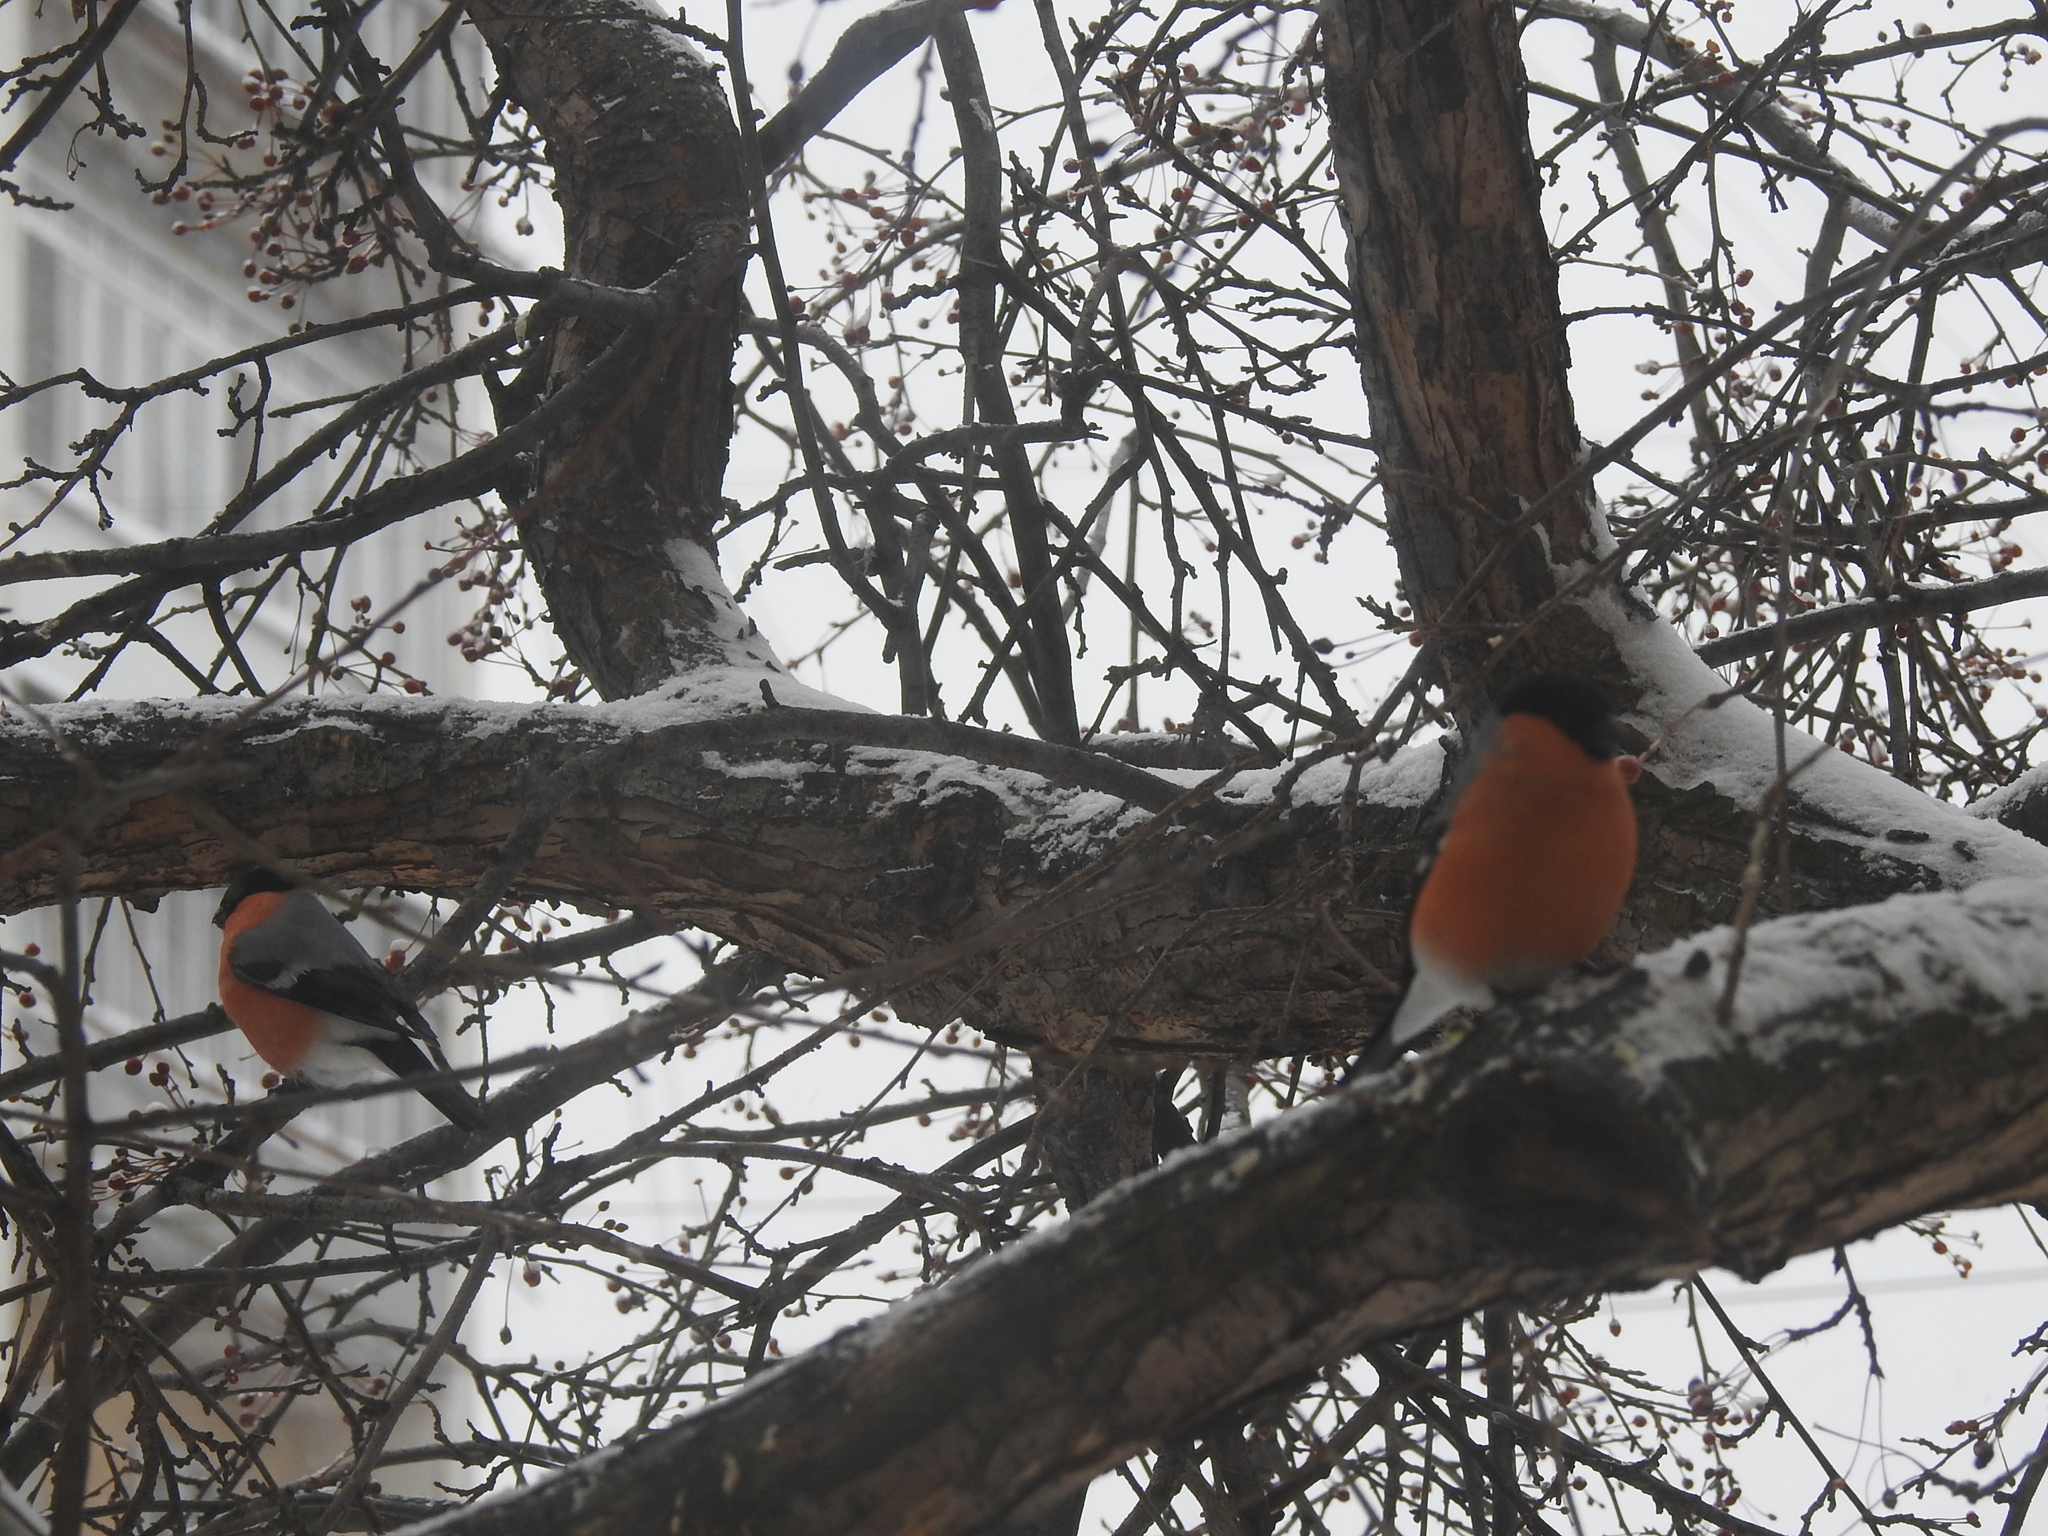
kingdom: Animalia
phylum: Chordata
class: Aves
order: Passeriformes
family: Fringillidae
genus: Pyrrhula
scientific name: Pyrrhula pyrrhula
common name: Eurasian bullfinch
